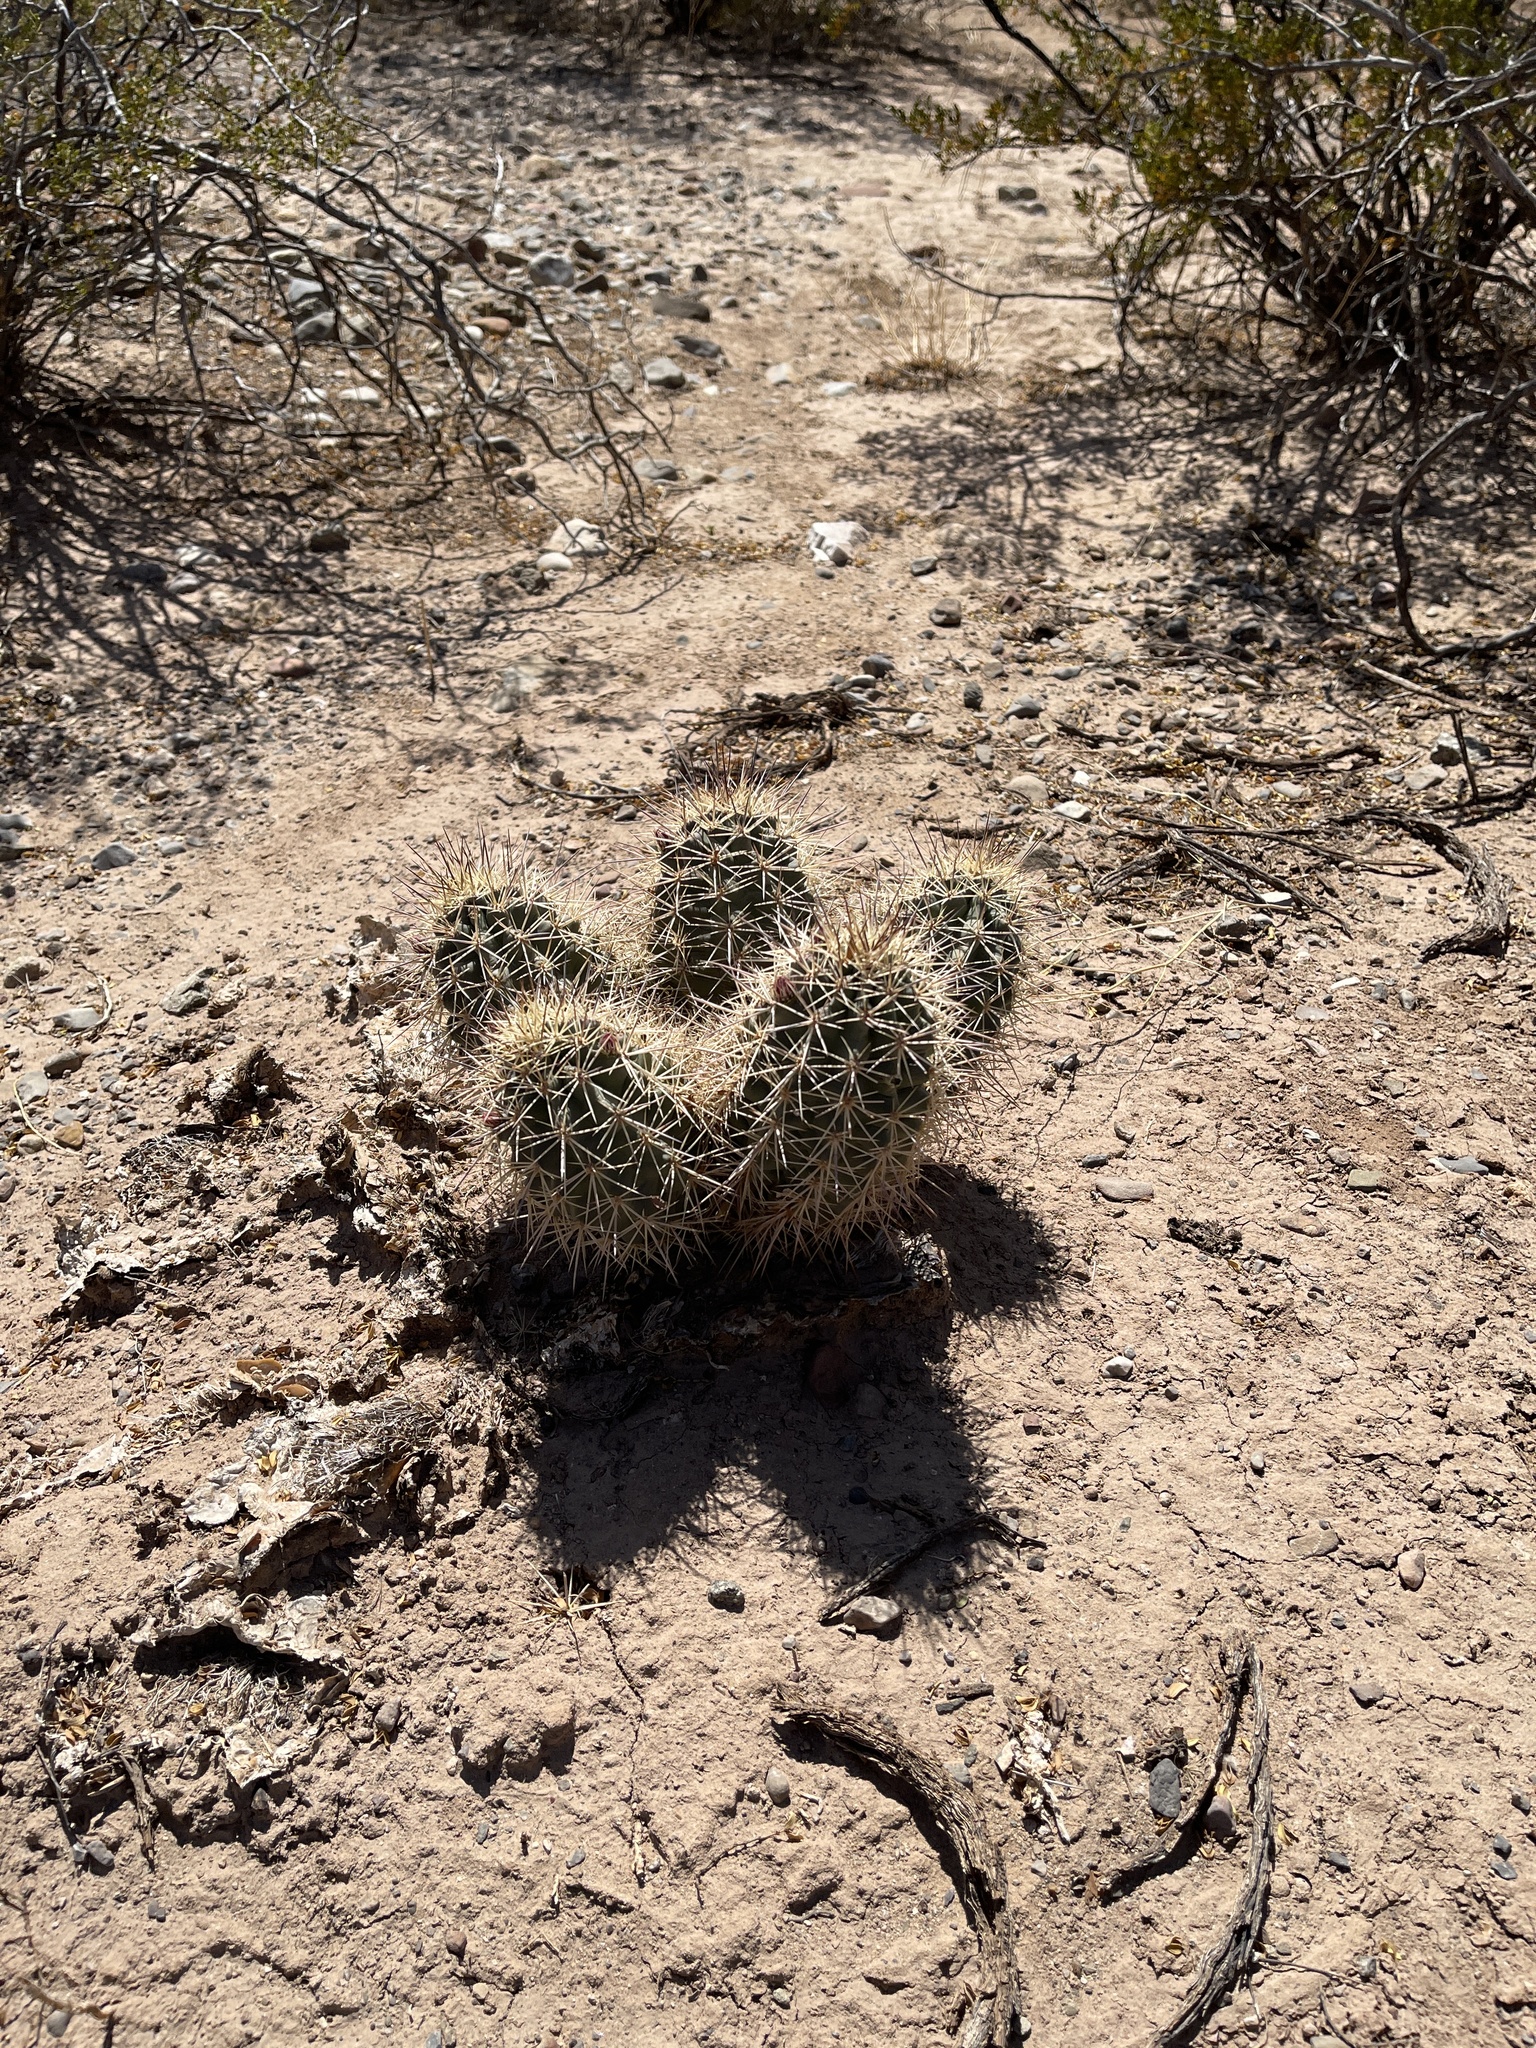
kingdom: Plantae
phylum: Tracheophyta
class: Magnoliopsida
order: Caryophyllales
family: Cactaceae
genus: Echinocereus
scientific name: Echinocereus coccineus
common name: Scarlet hedgehog cactus
